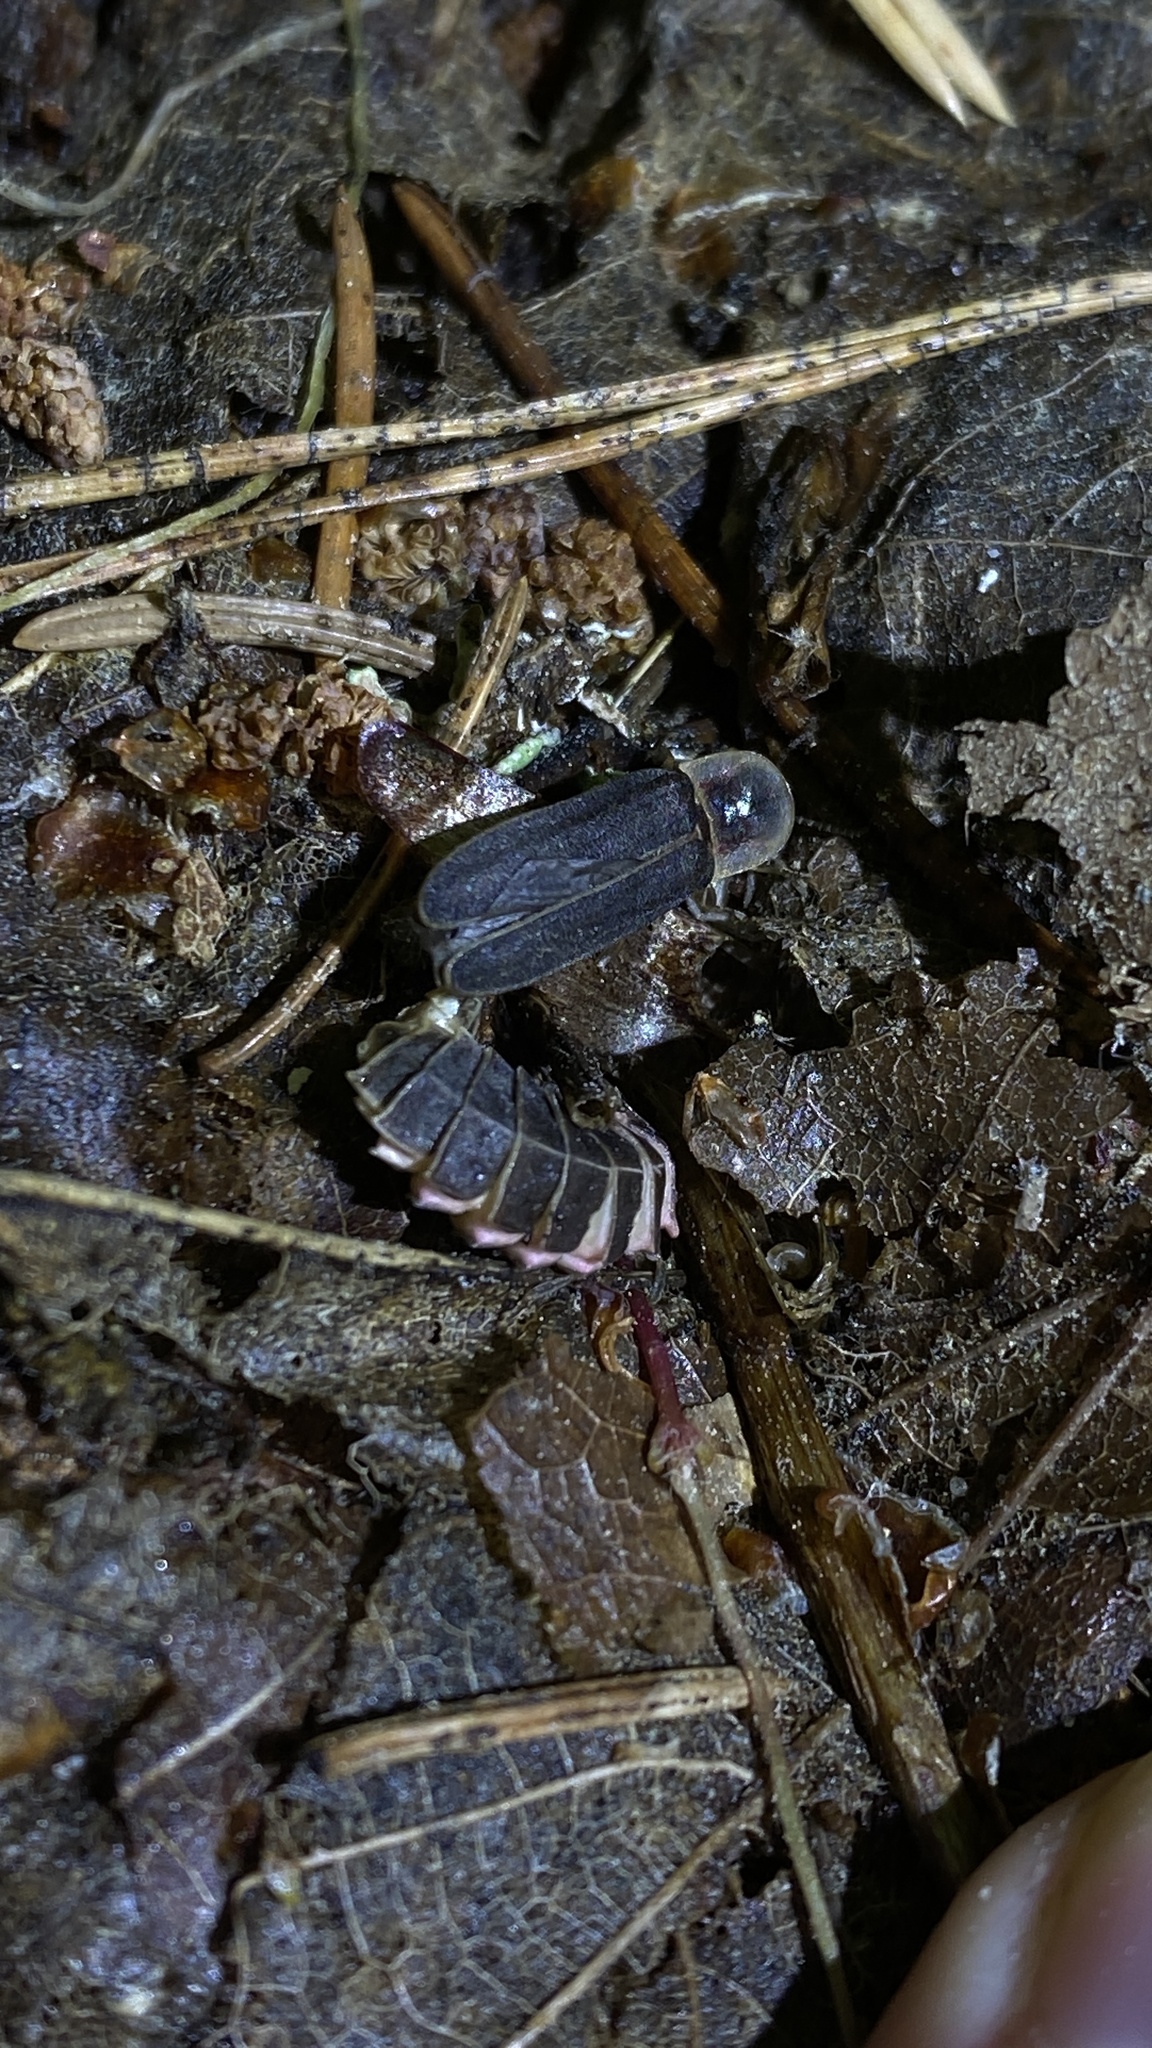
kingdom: Animalia
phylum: Arthropoda
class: Insecta
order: Coleoptera
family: Lampyridae
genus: Lampyris
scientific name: Lampyris noctiluca
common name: Glow-worm
